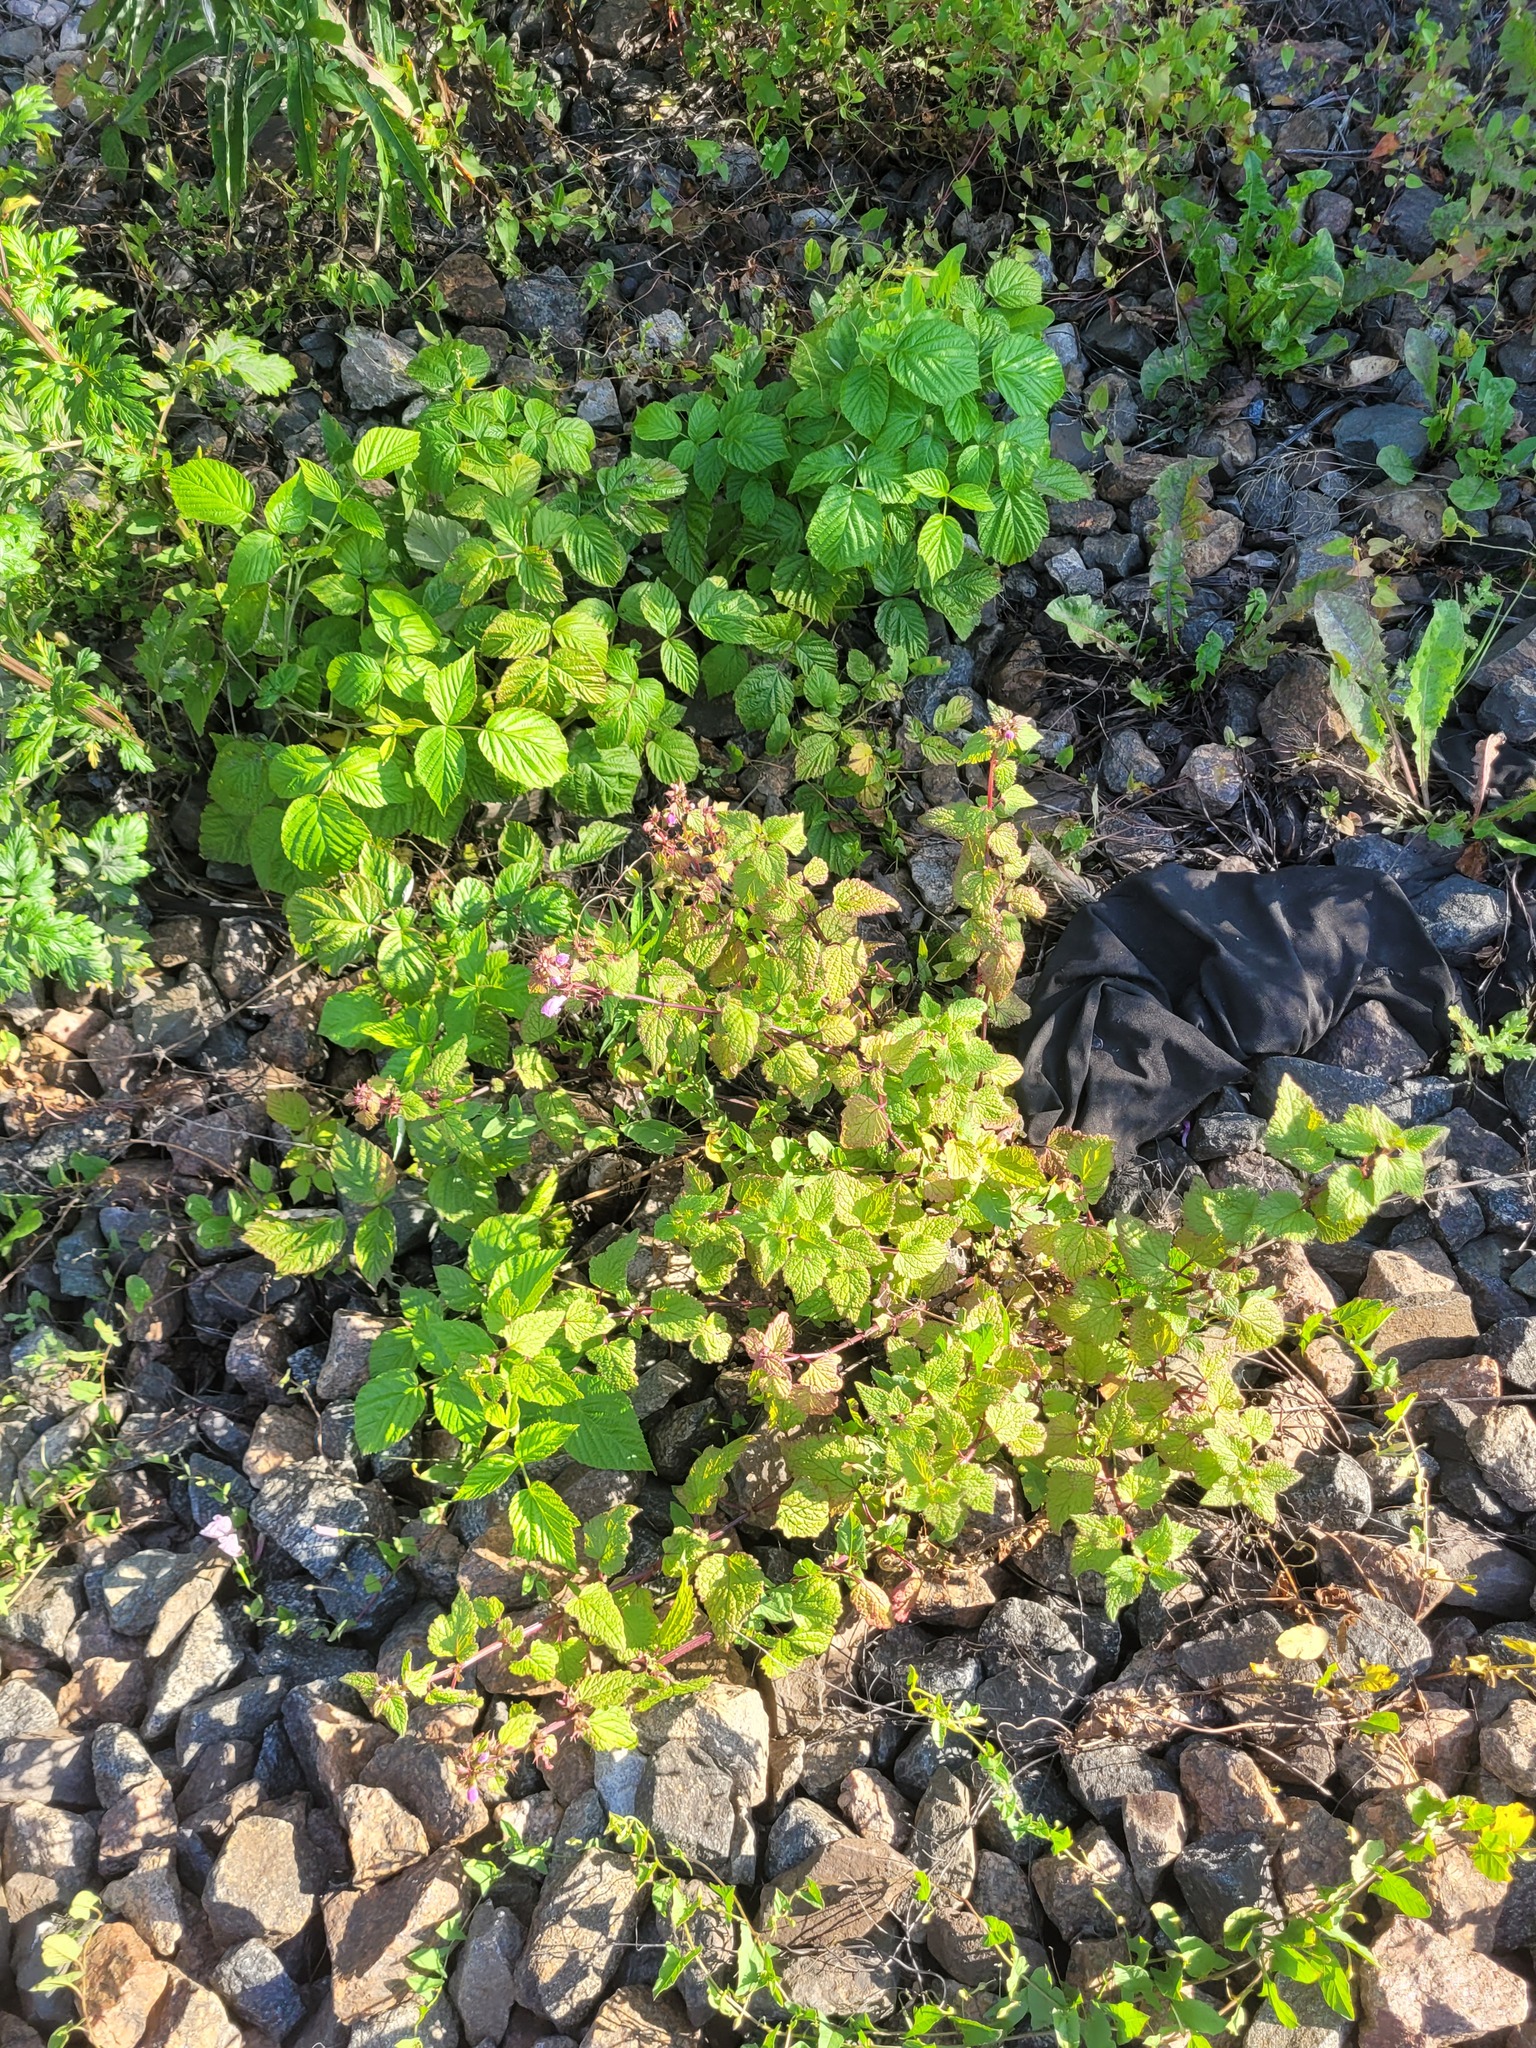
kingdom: Plantae
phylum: Tracheophyta
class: Magnoliopsida
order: Lamiales
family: Lamiaceae
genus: Lamium
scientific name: Lamium maculatum
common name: Spotted dead-nettle
